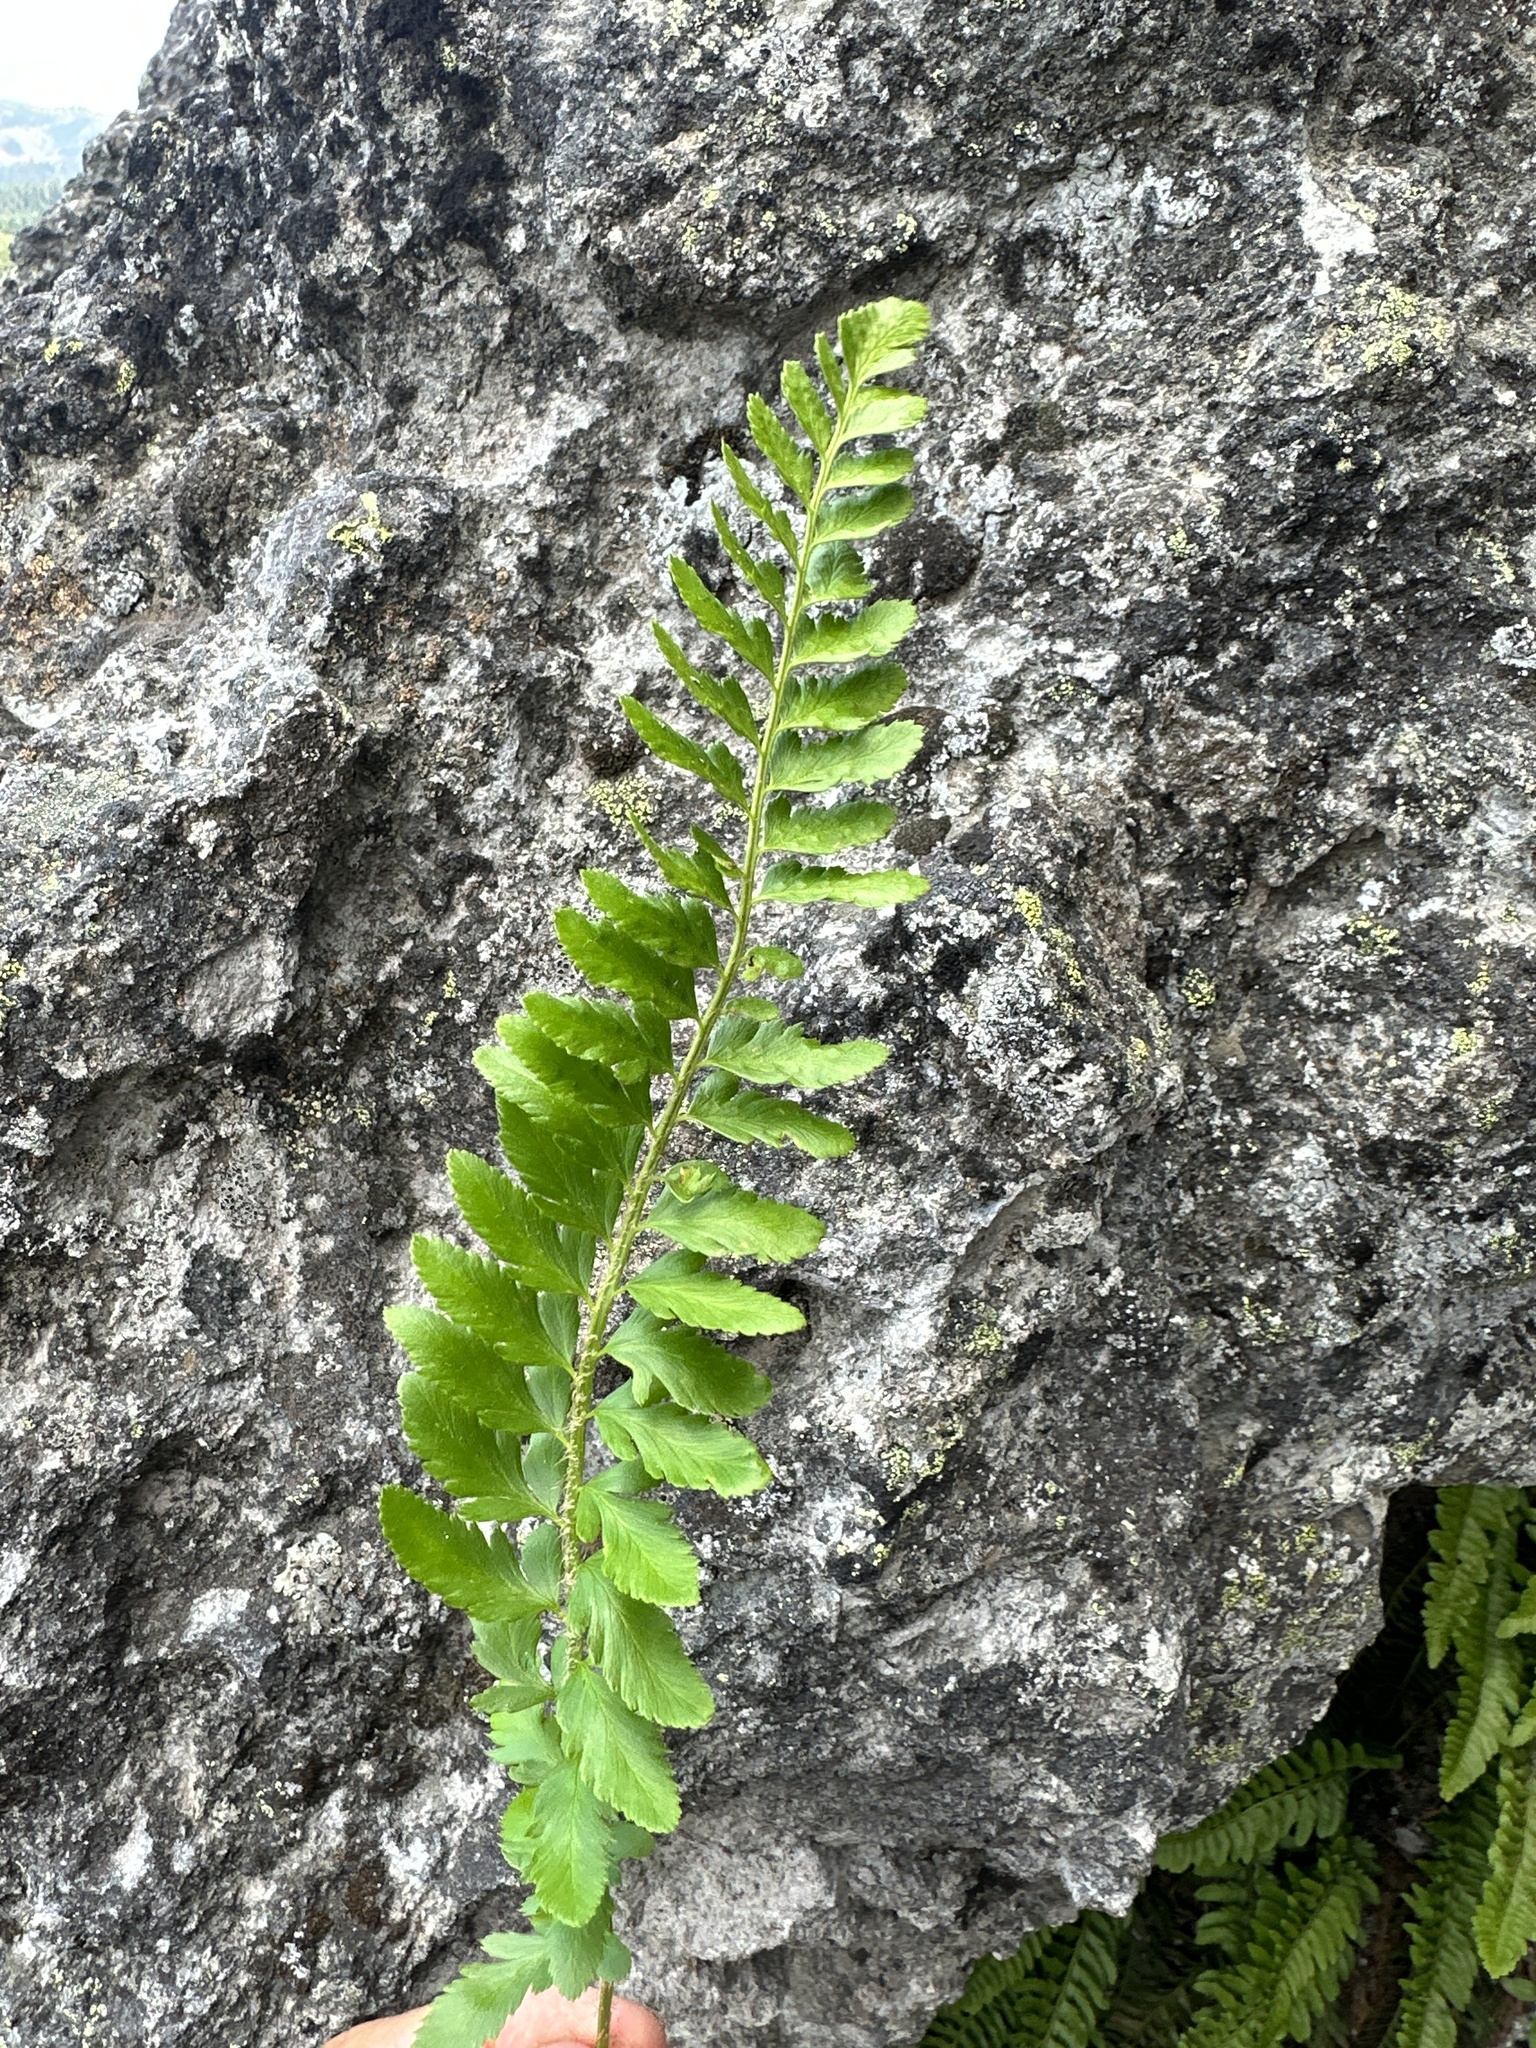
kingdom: Plantae
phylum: Tracheophyta
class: Polypodiopsida
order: Polypodiales
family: Dryopteridaceae
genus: Polystichum
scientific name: Polystichum scopulinum
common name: Eaton's shield fern
